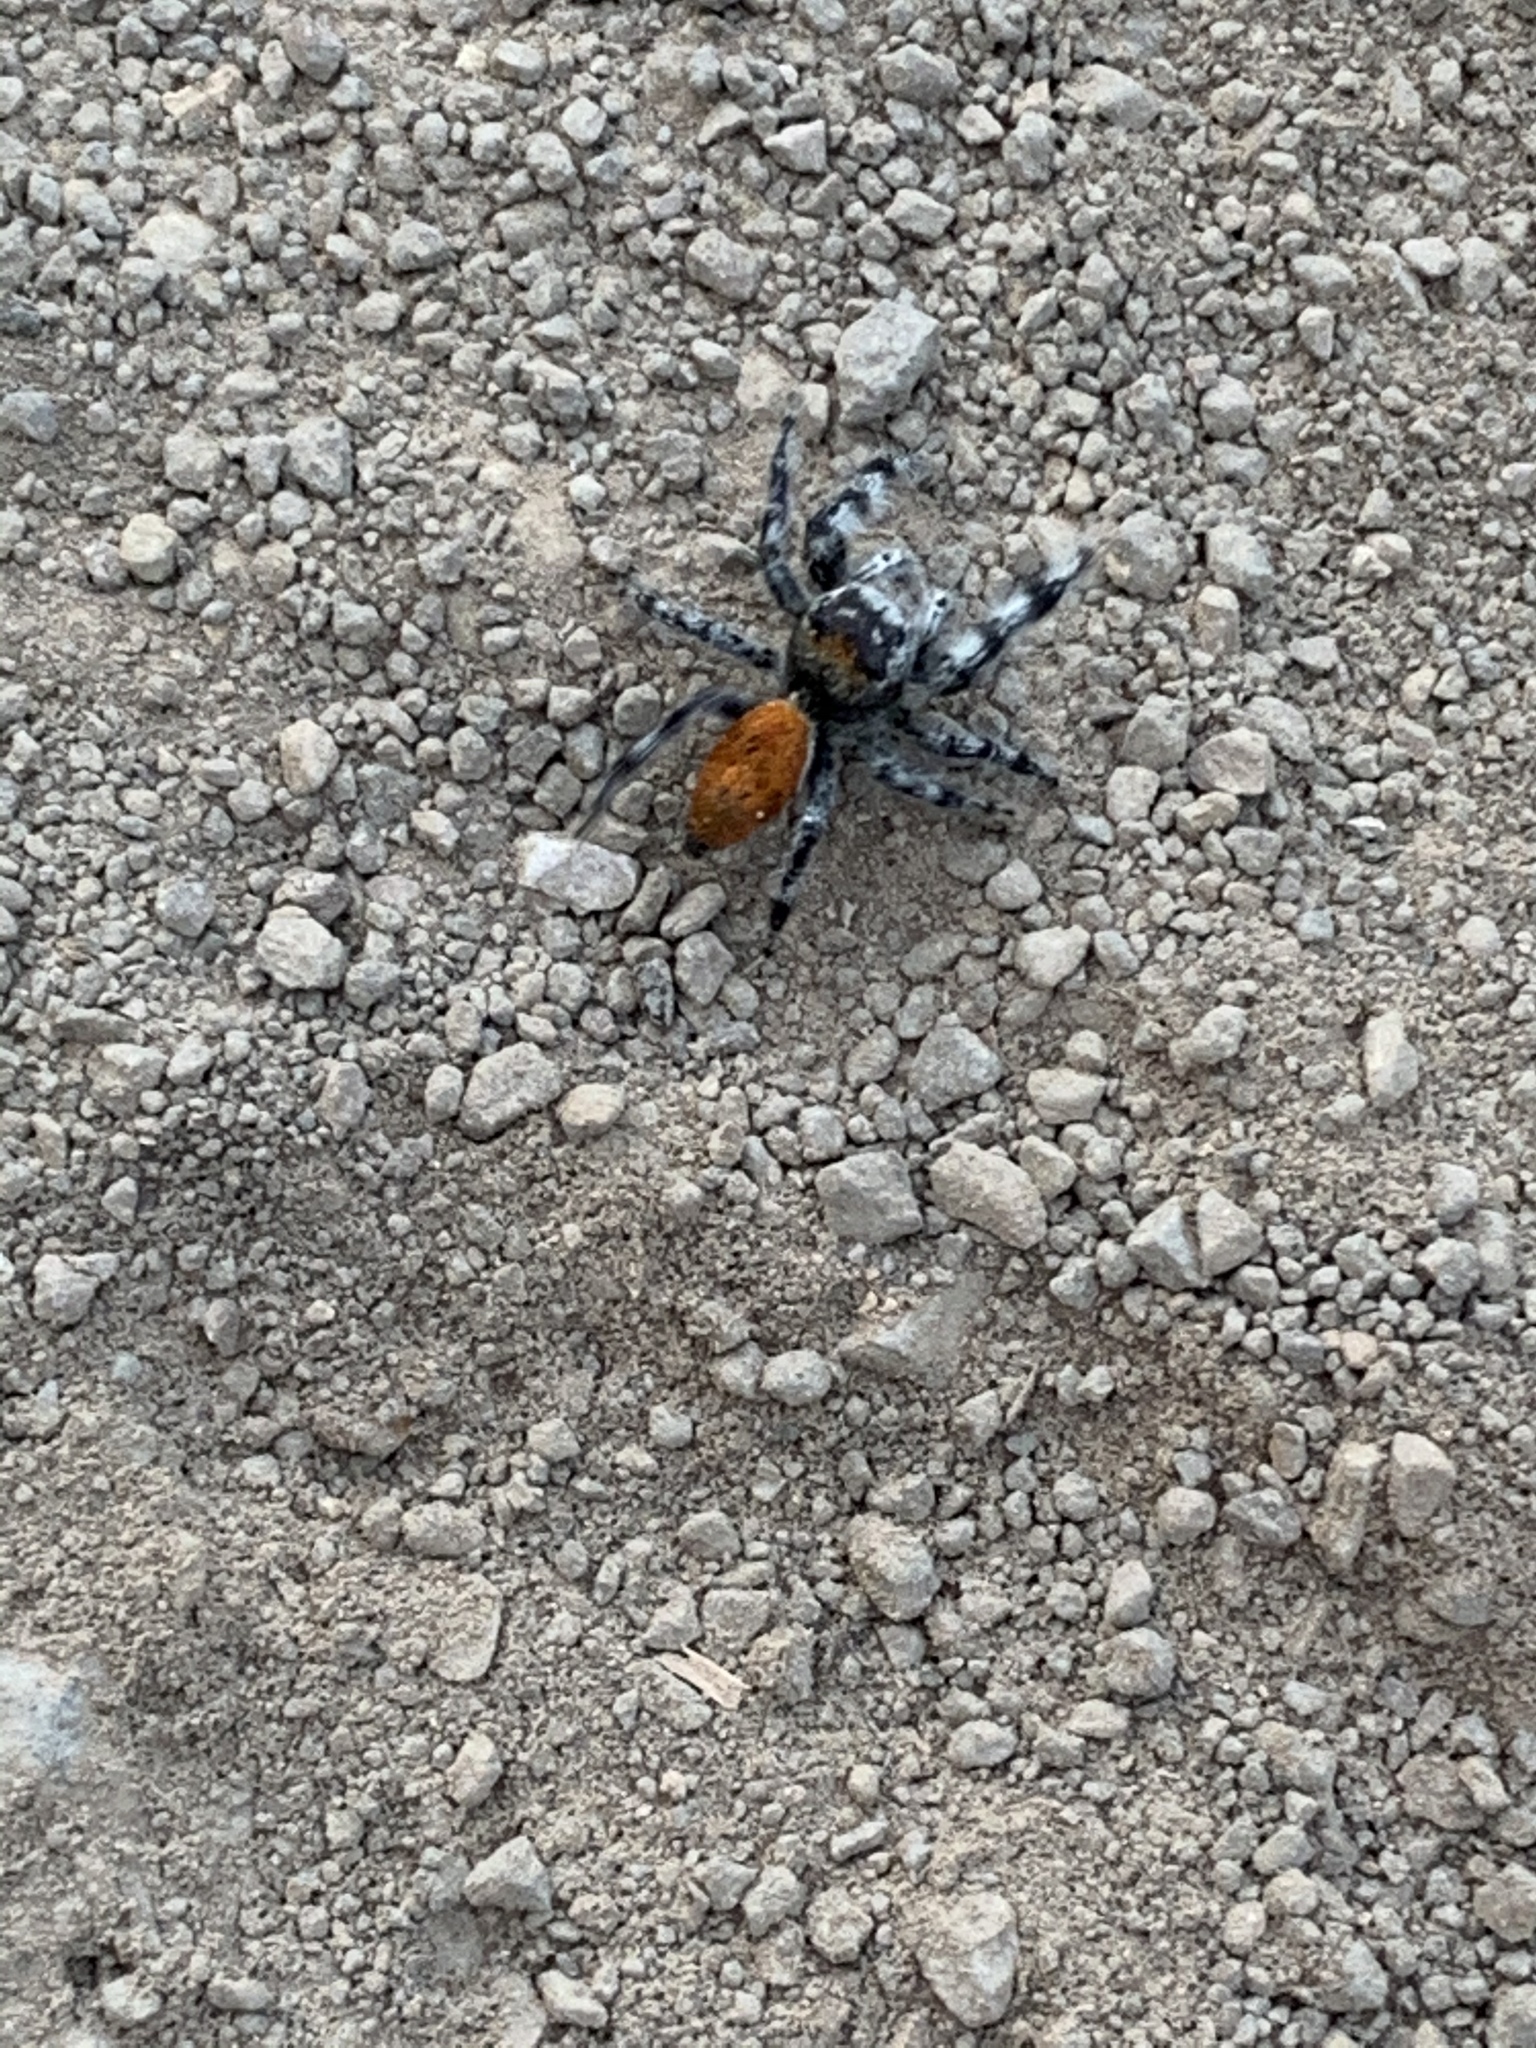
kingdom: Animalia
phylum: Arthropoda
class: Arachnida
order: Araneae
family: Salticidae
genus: Phidippus
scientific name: Phidippus adumbratus
